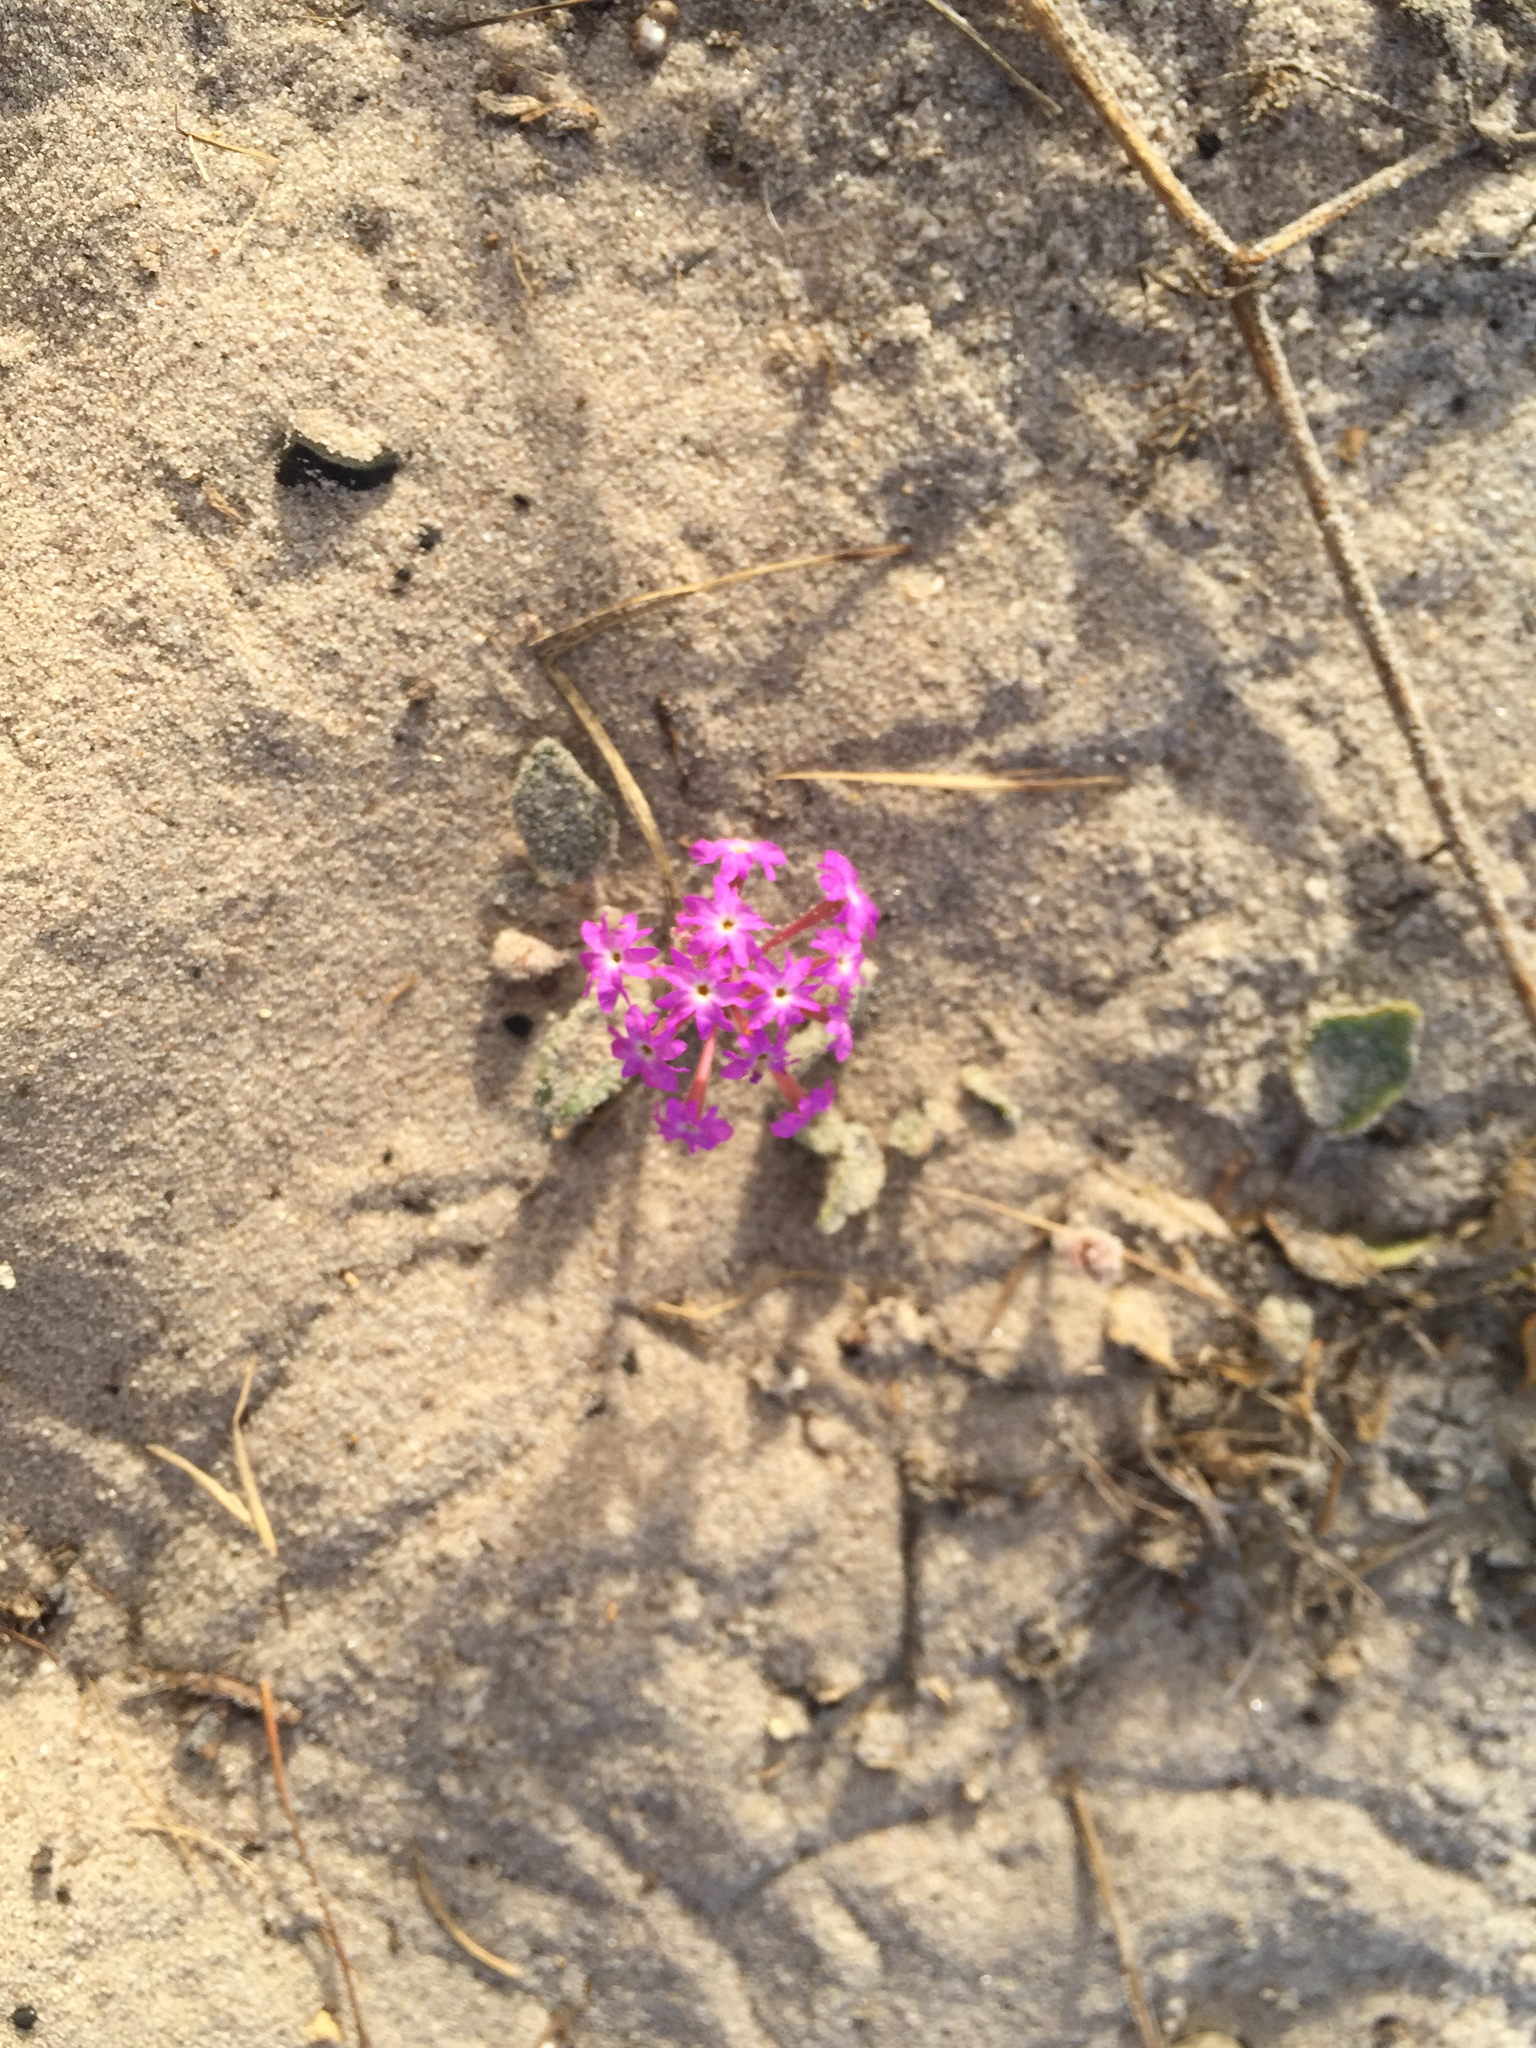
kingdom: Plantae
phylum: Tracheophyta
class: Magnoliopsida
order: Caryophyllales
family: Nyctaginaceae
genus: Abronia
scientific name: Abronia umbellata
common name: Sand-verbena
